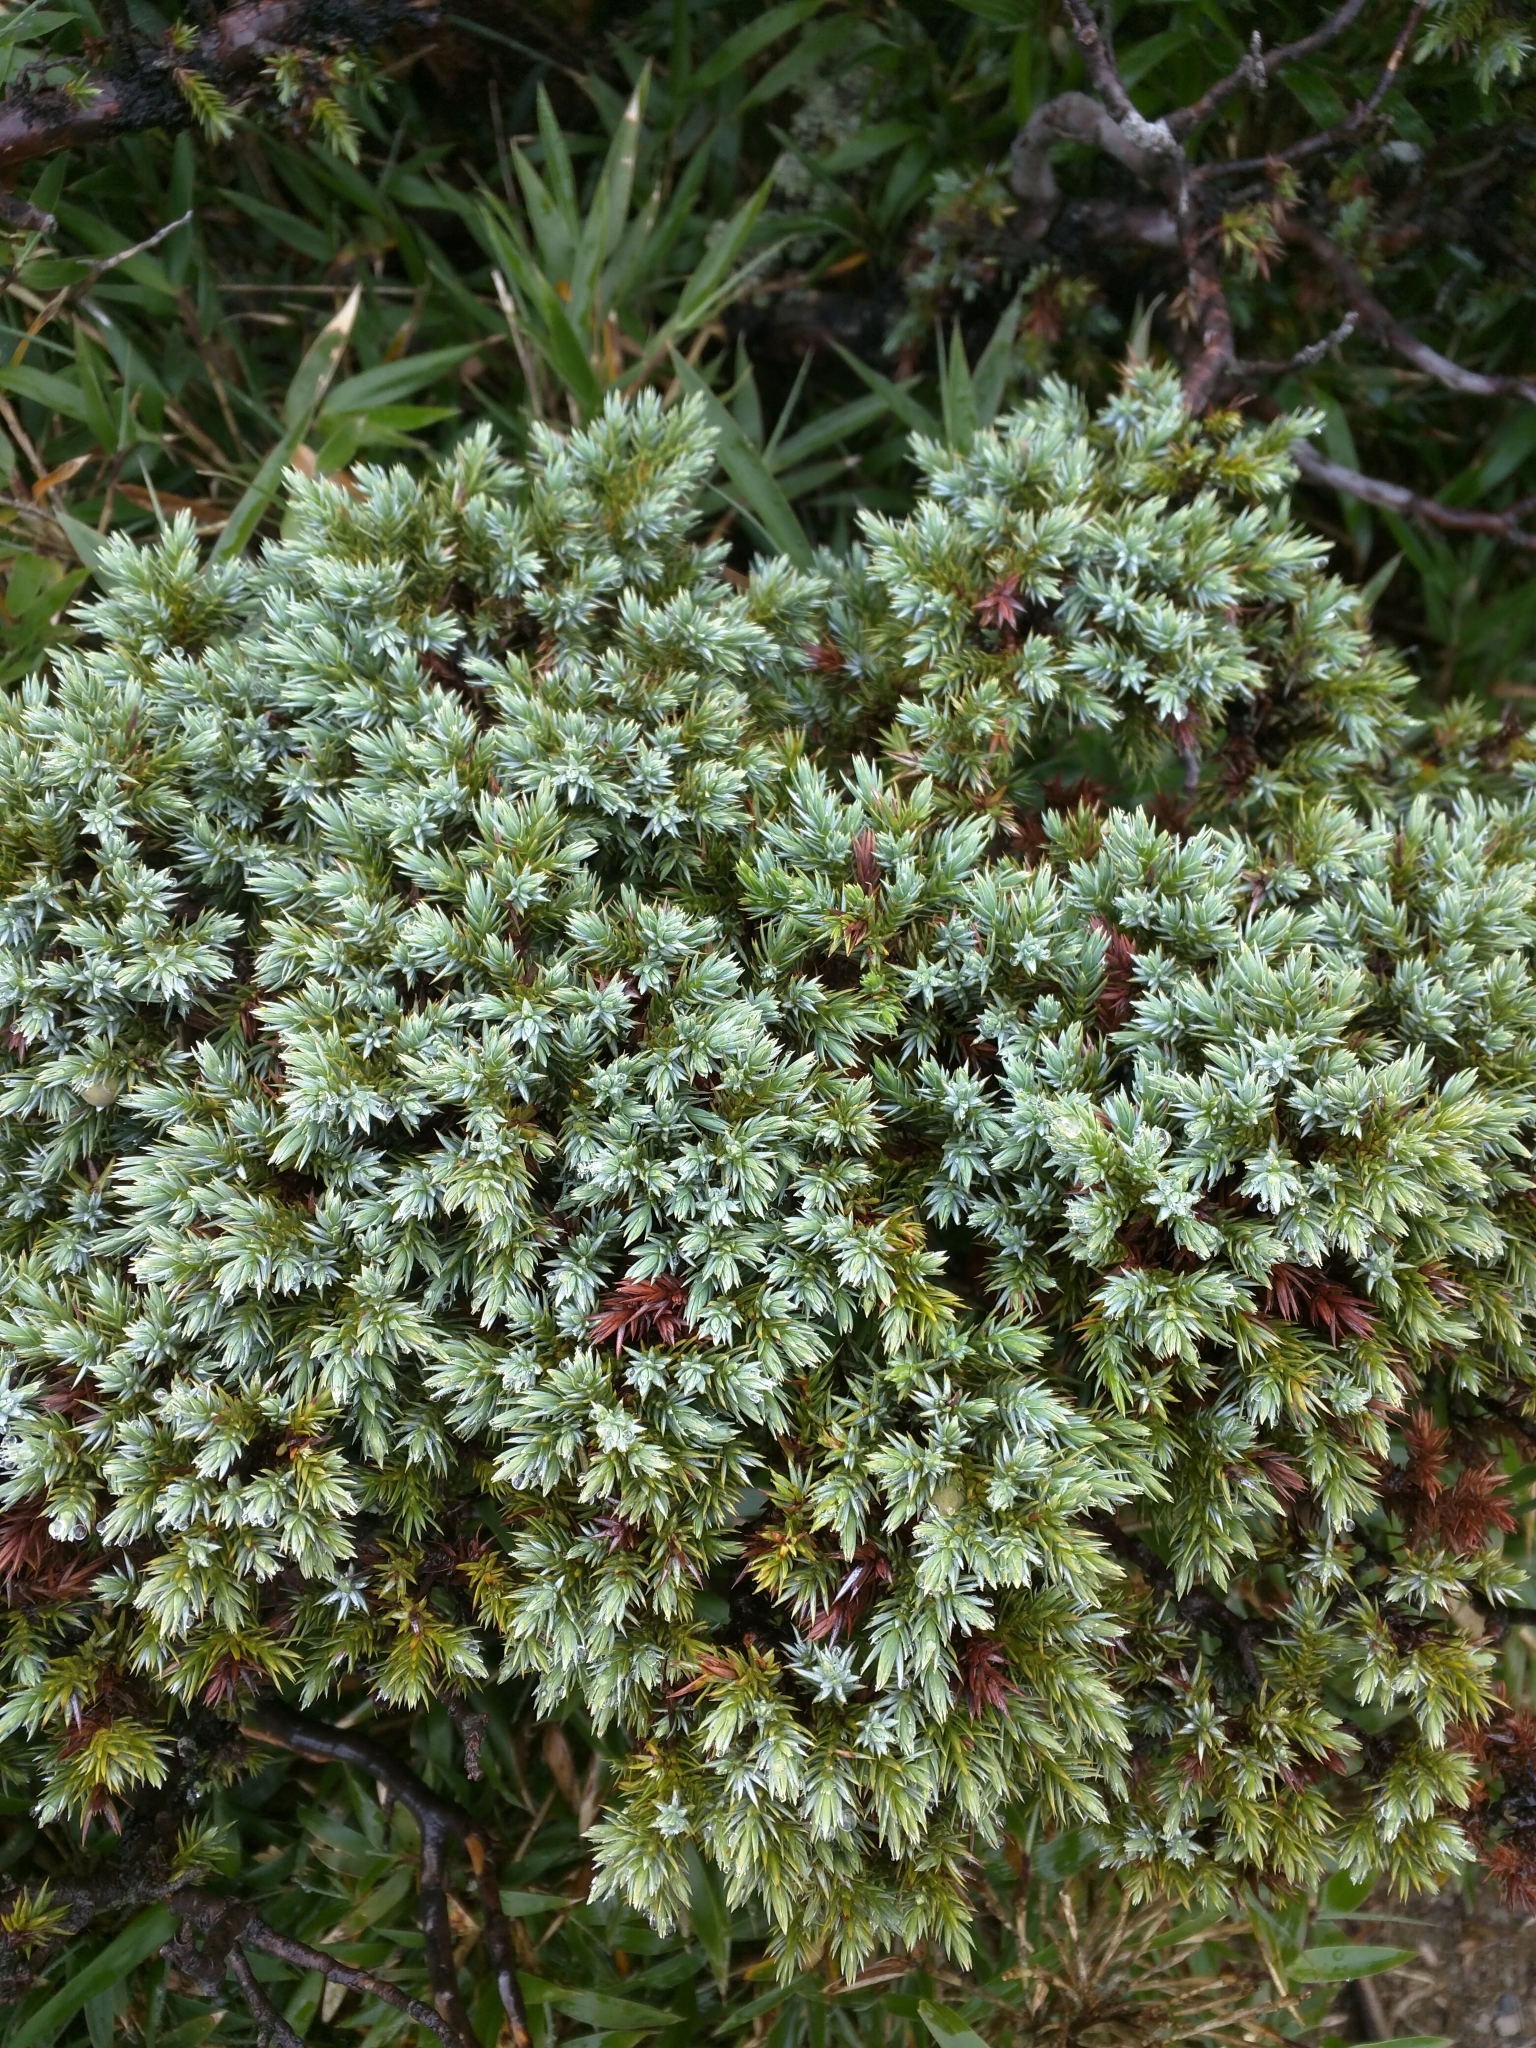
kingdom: Plantae
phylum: Tracheophyta
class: Pinopsida
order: Pinales
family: Cupressaceae
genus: Juniperus
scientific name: Juniperus squamata
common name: Flaky juniper
